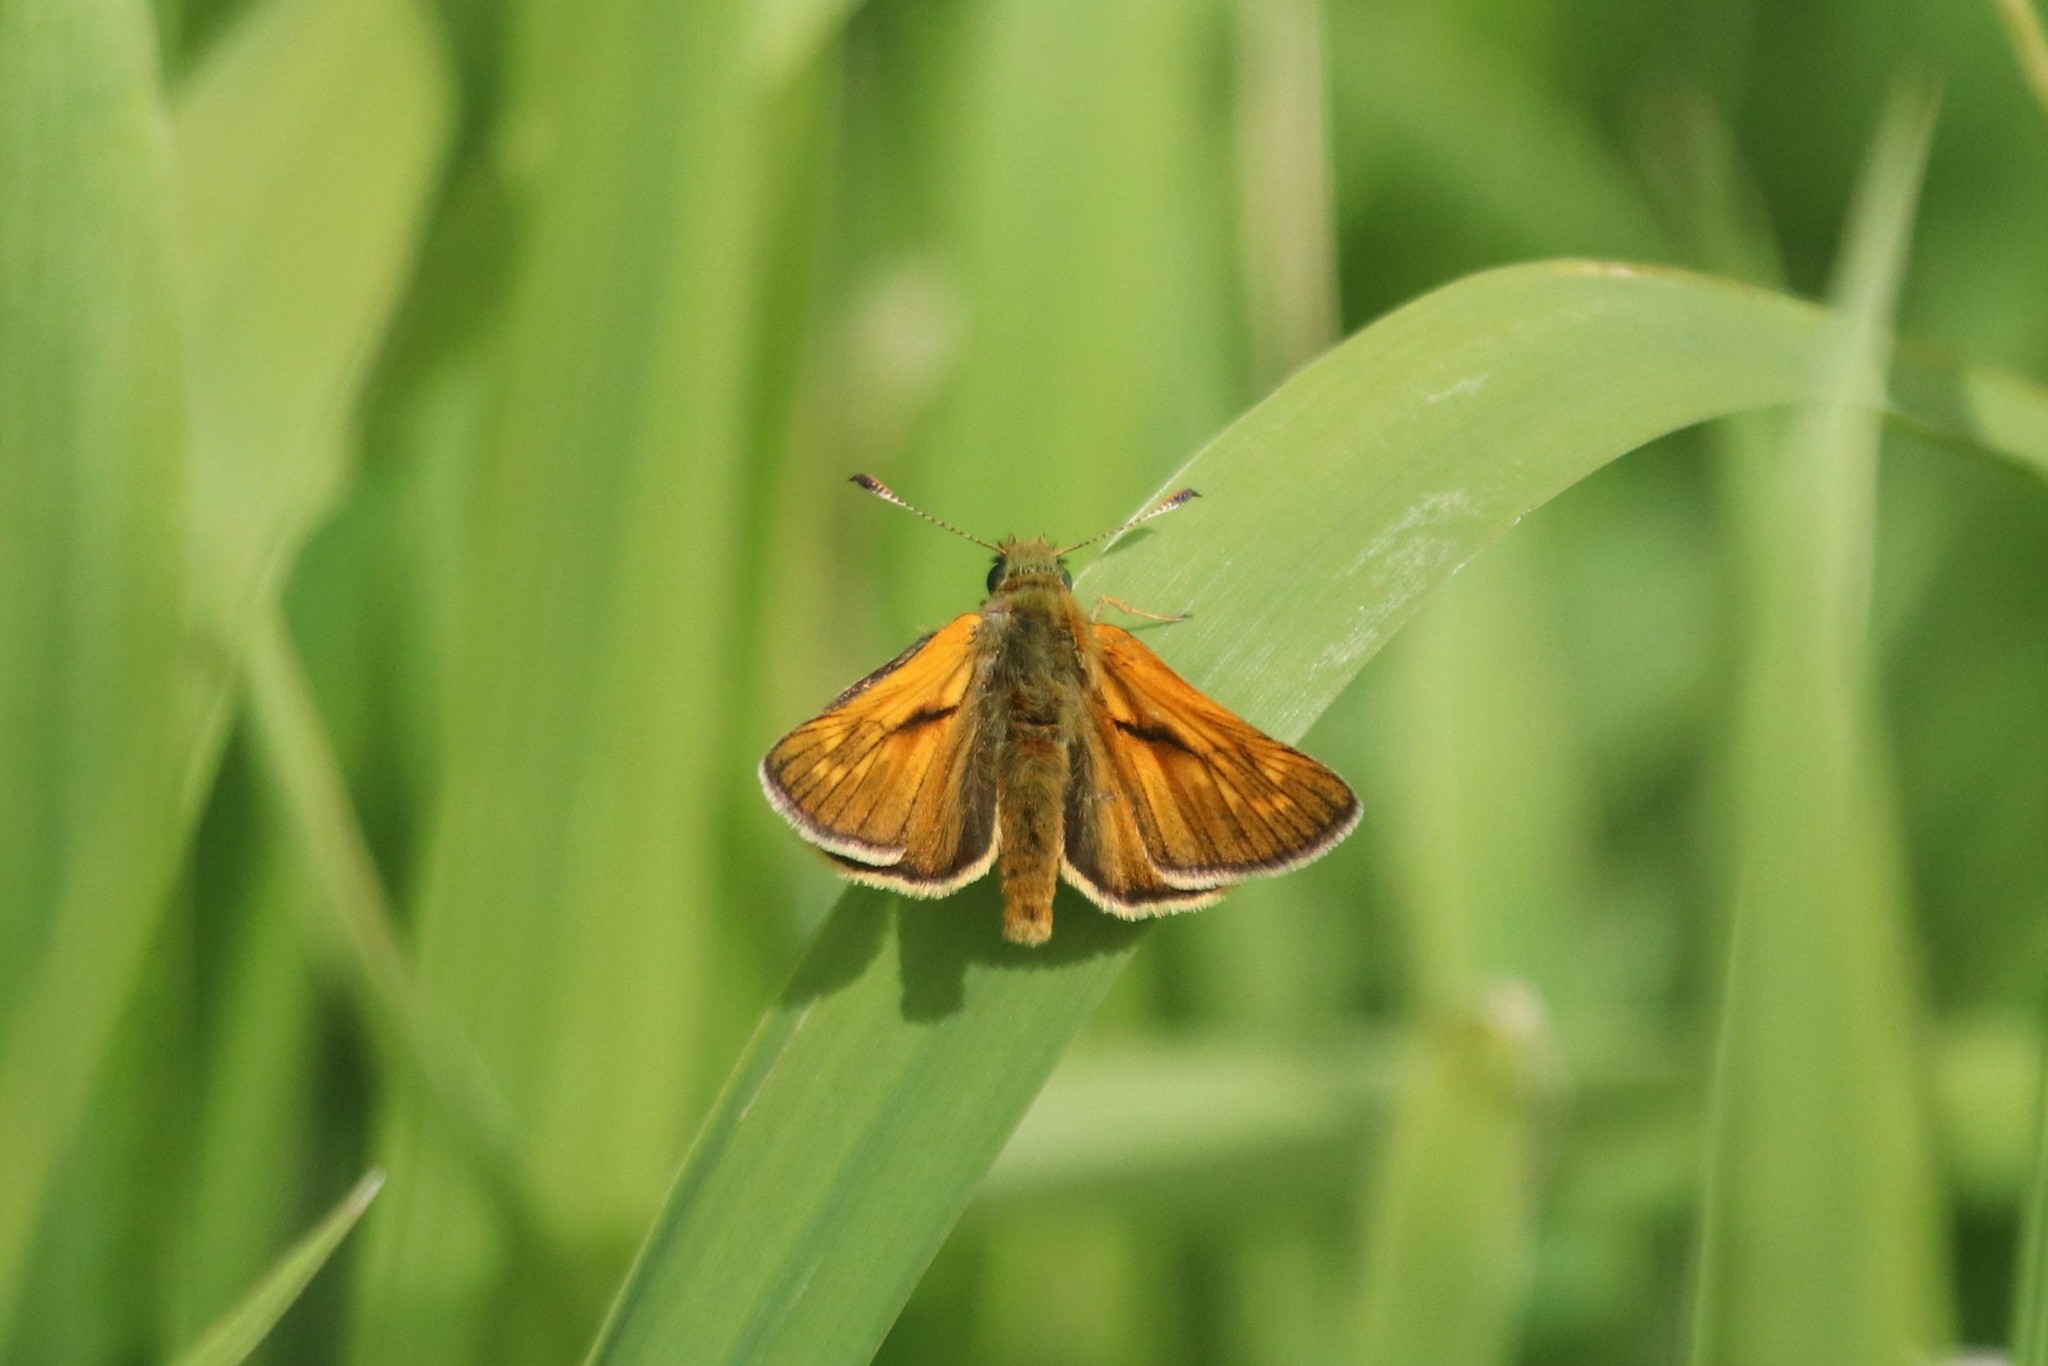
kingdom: Animalia
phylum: Arthropoda
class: Insecta
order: Lepidoptera
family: Hesperiidae
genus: Ochlodes
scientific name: Ochlodes venata
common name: Large skipper
